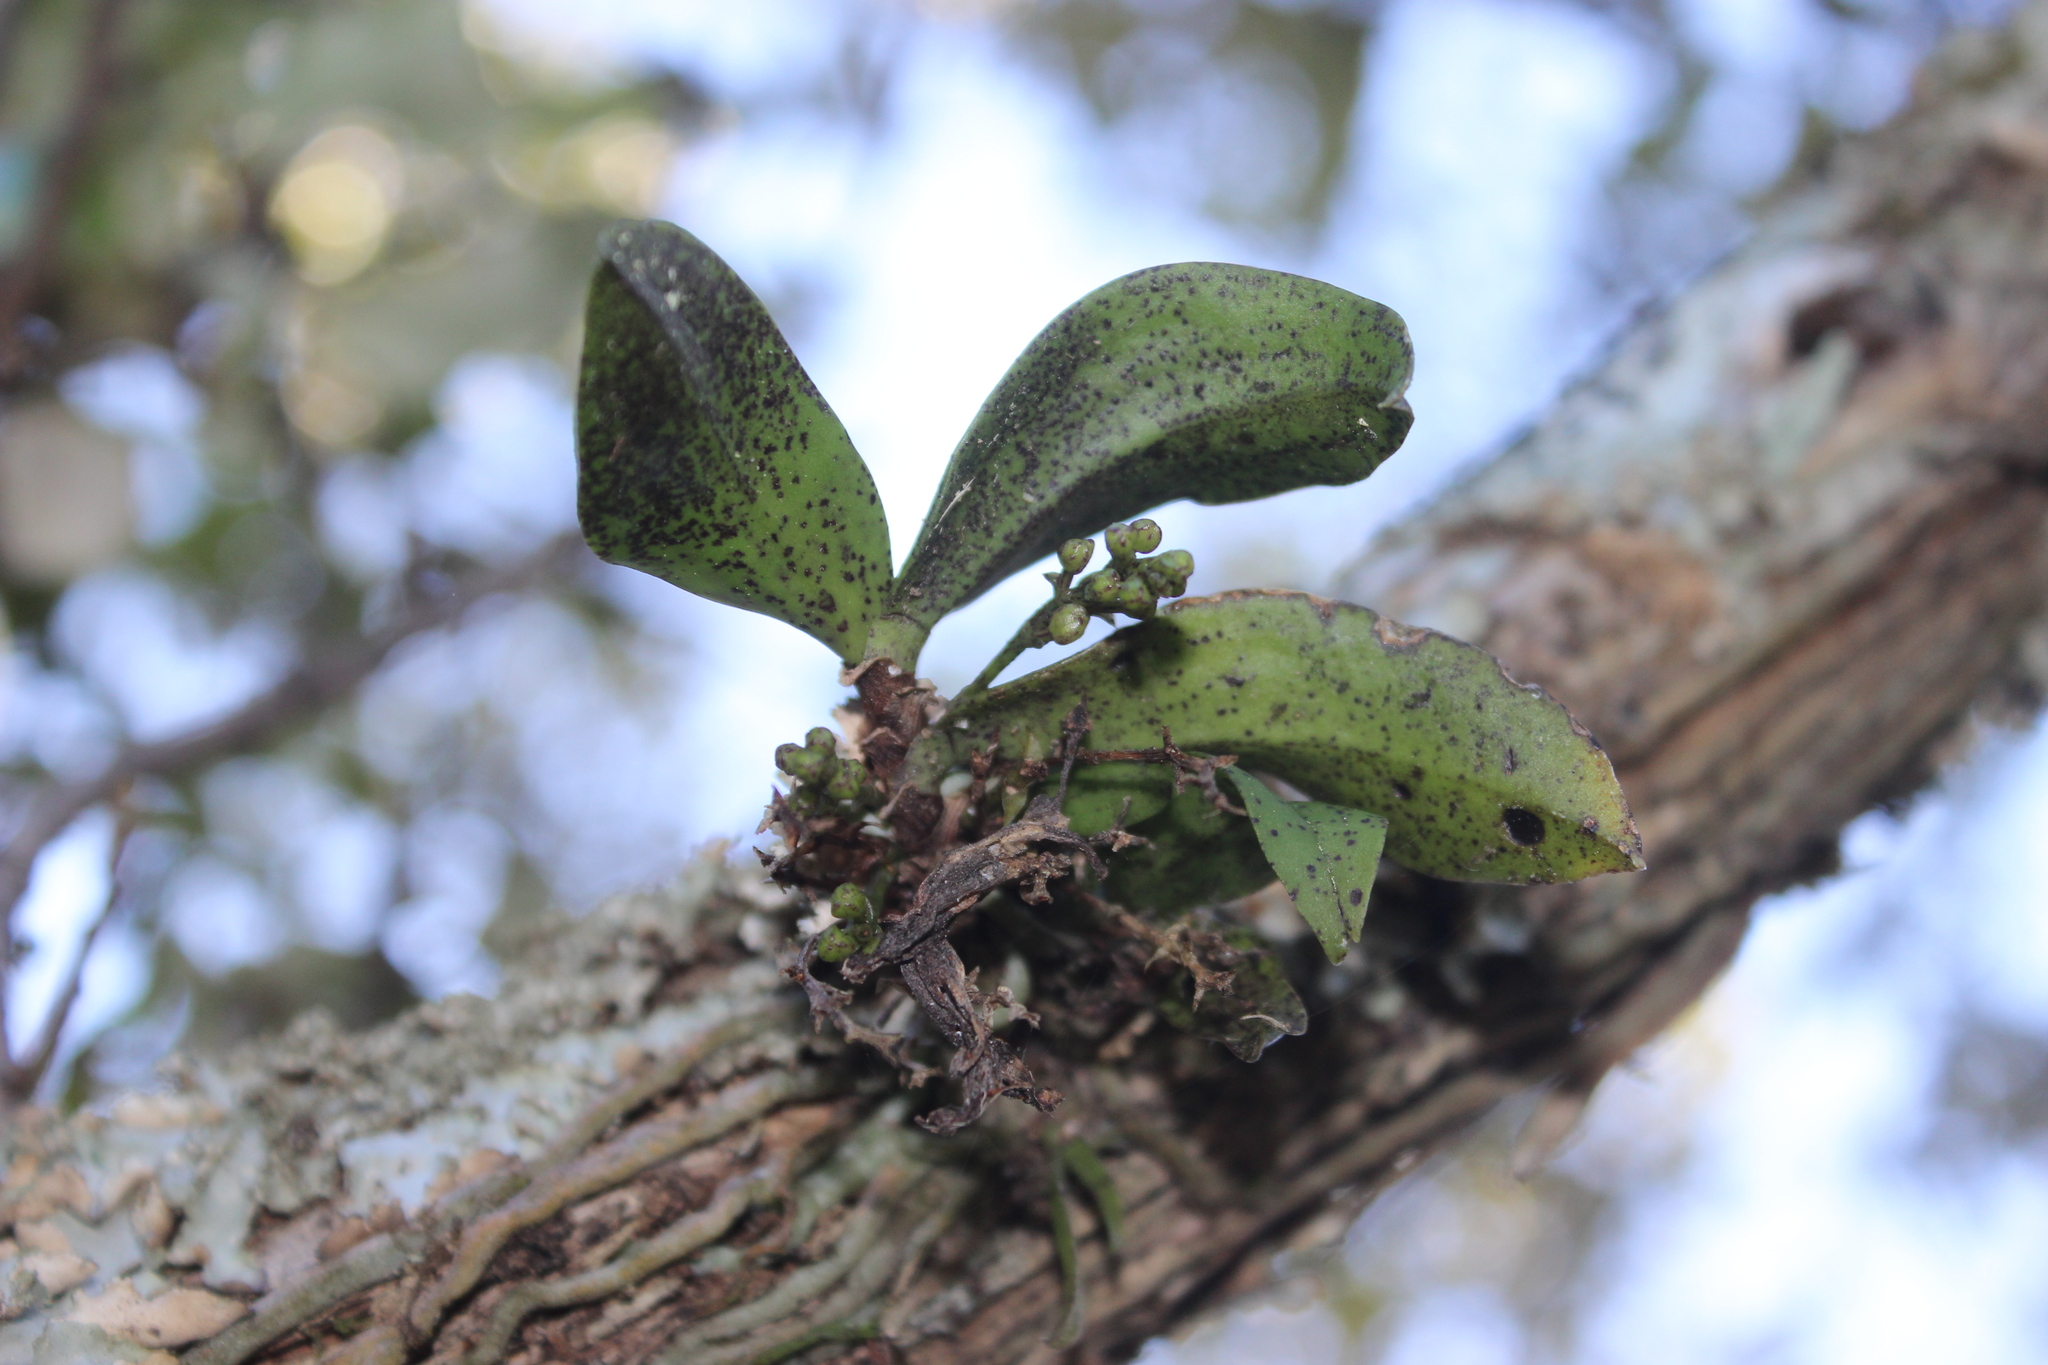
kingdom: Plantae
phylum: Tracheophyta
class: Liliopsida
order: Asparagales
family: Orchidaceae
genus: Drymoanthus
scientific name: Drymoanthus flavus
